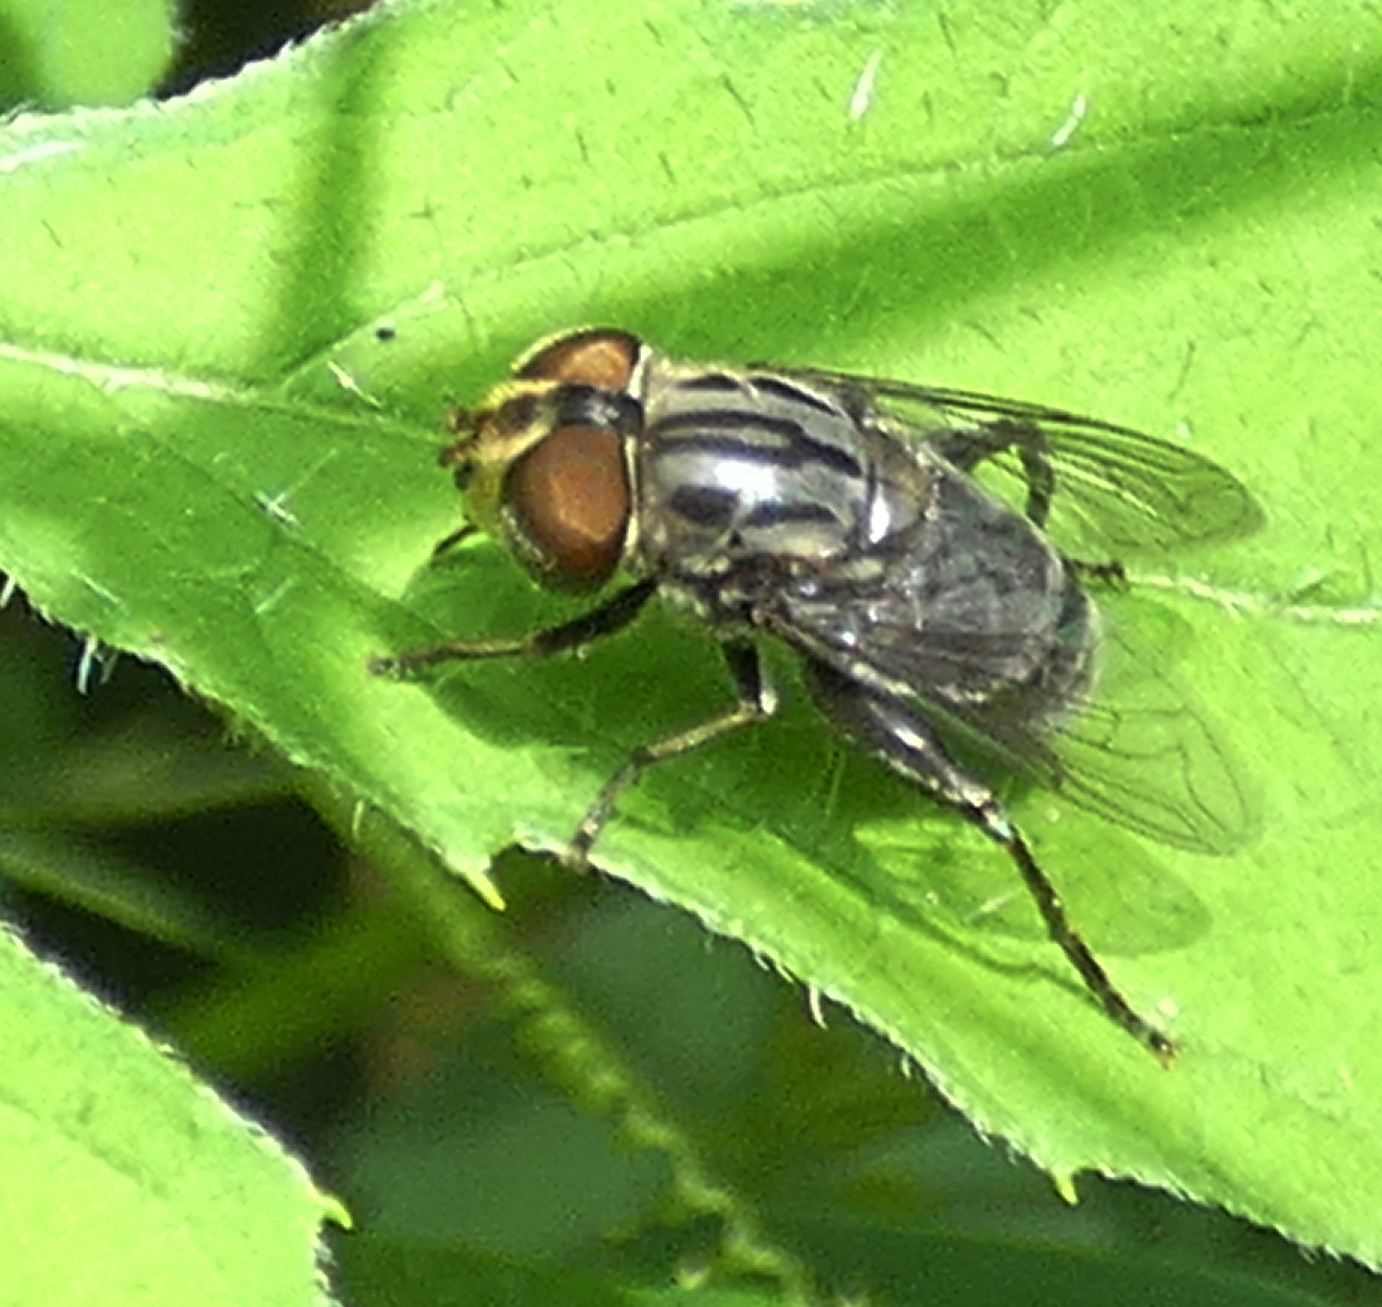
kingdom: Animalia
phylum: Arthropoda
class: Insecta
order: Diptera
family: Syrphidae
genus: Palpada
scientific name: Palpada furcata
